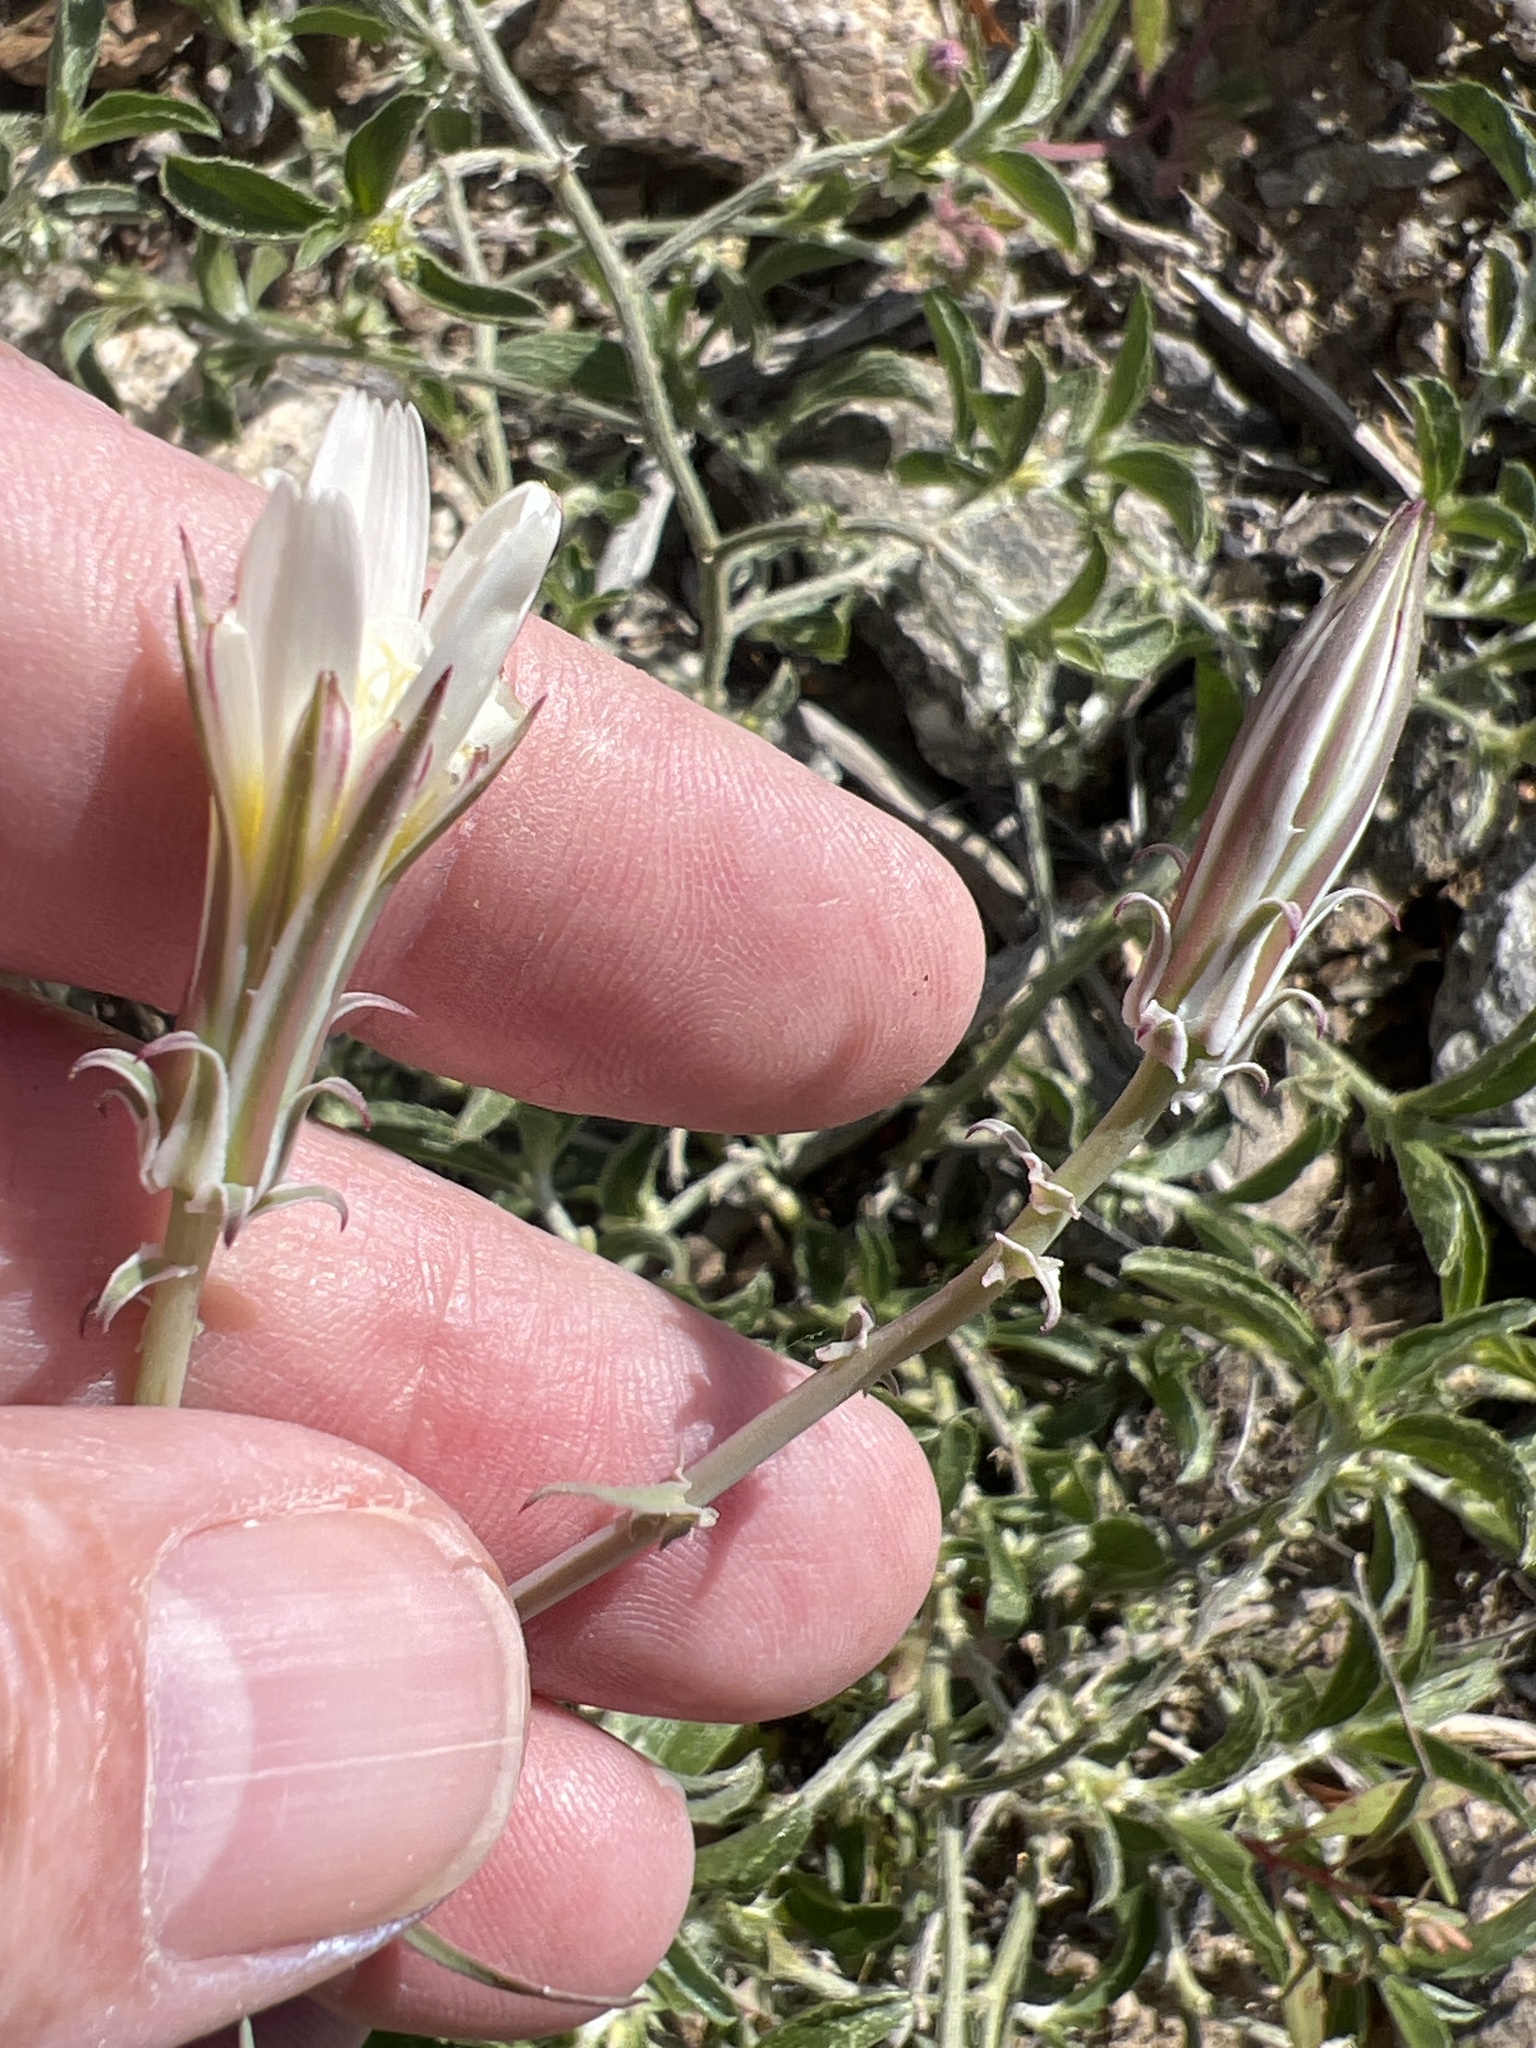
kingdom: Plantae
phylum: Tracheophyta
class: Magnoliopsida
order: Asterales
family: Asteraceae
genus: Rafinesquia
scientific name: Rafinesquia neomexicana
